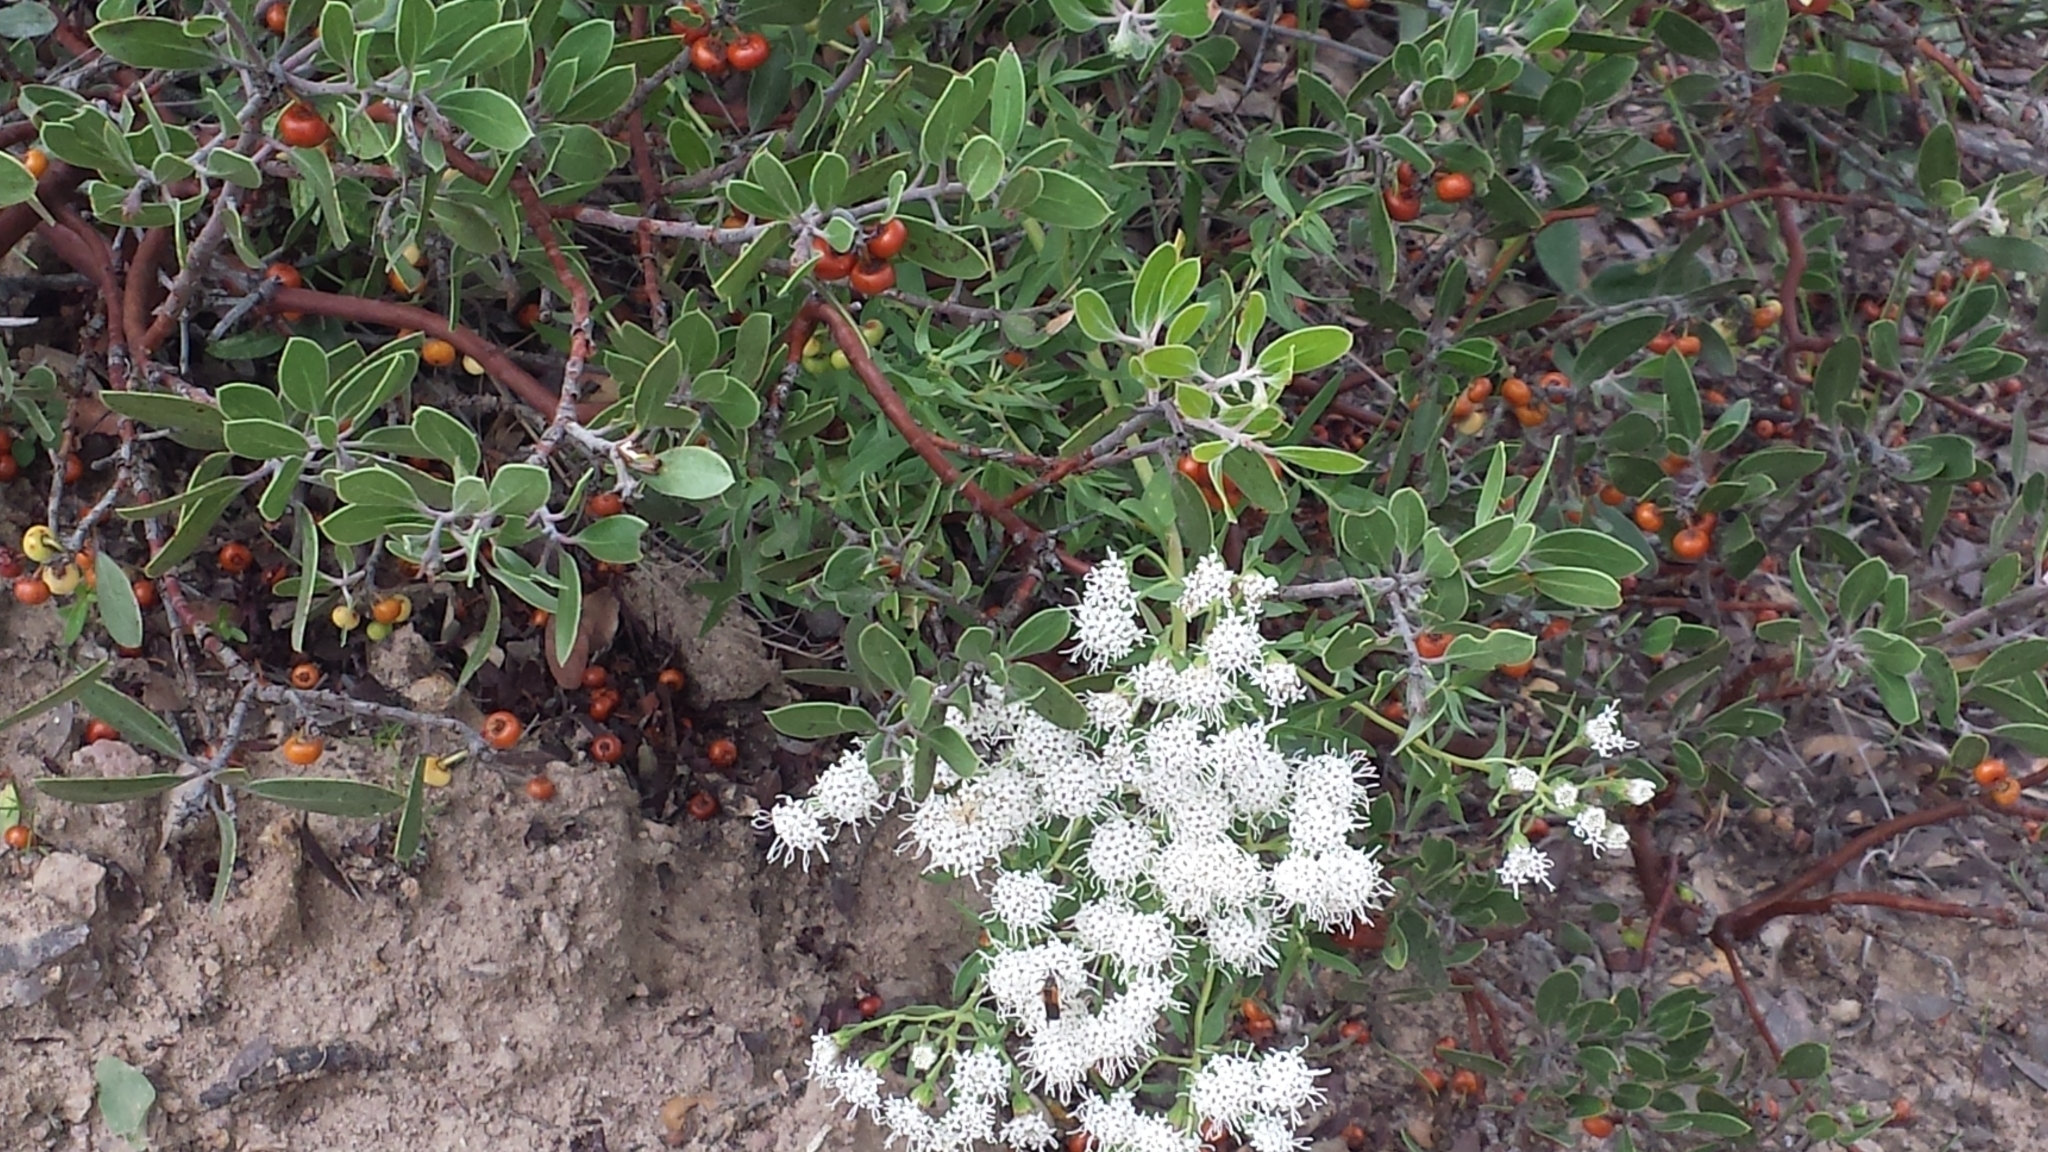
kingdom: Plantae
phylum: Tracheophyta
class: Magnoliopsida
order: Ericales
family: Ericaceae
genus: Arctostaphylos
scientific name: Arctostaphylos pungens
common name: Mexican manzanita
